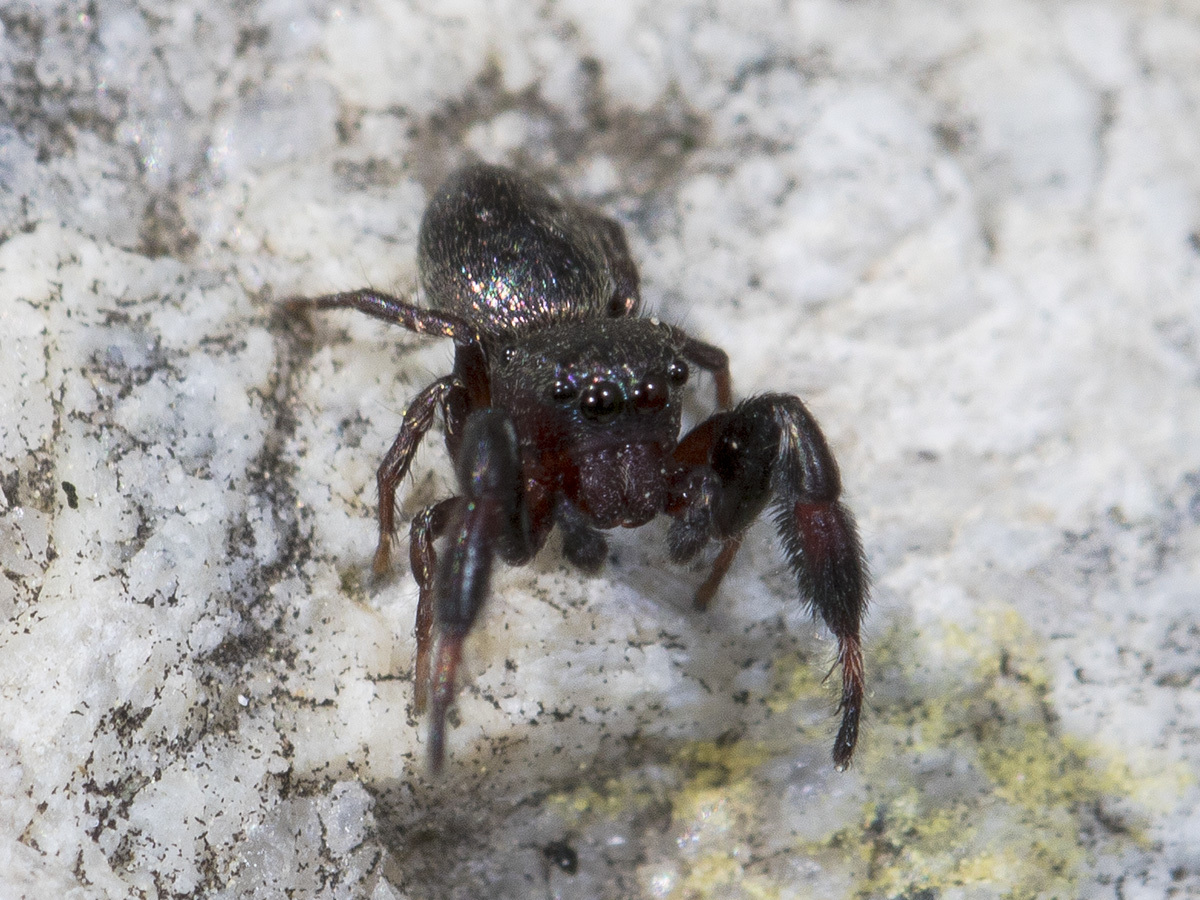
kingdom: Animalia
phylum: Arthropoda
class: Arachnida
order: Araneae
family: Salticidae
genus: Sibianor
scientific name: Sibianor aurocinctus
